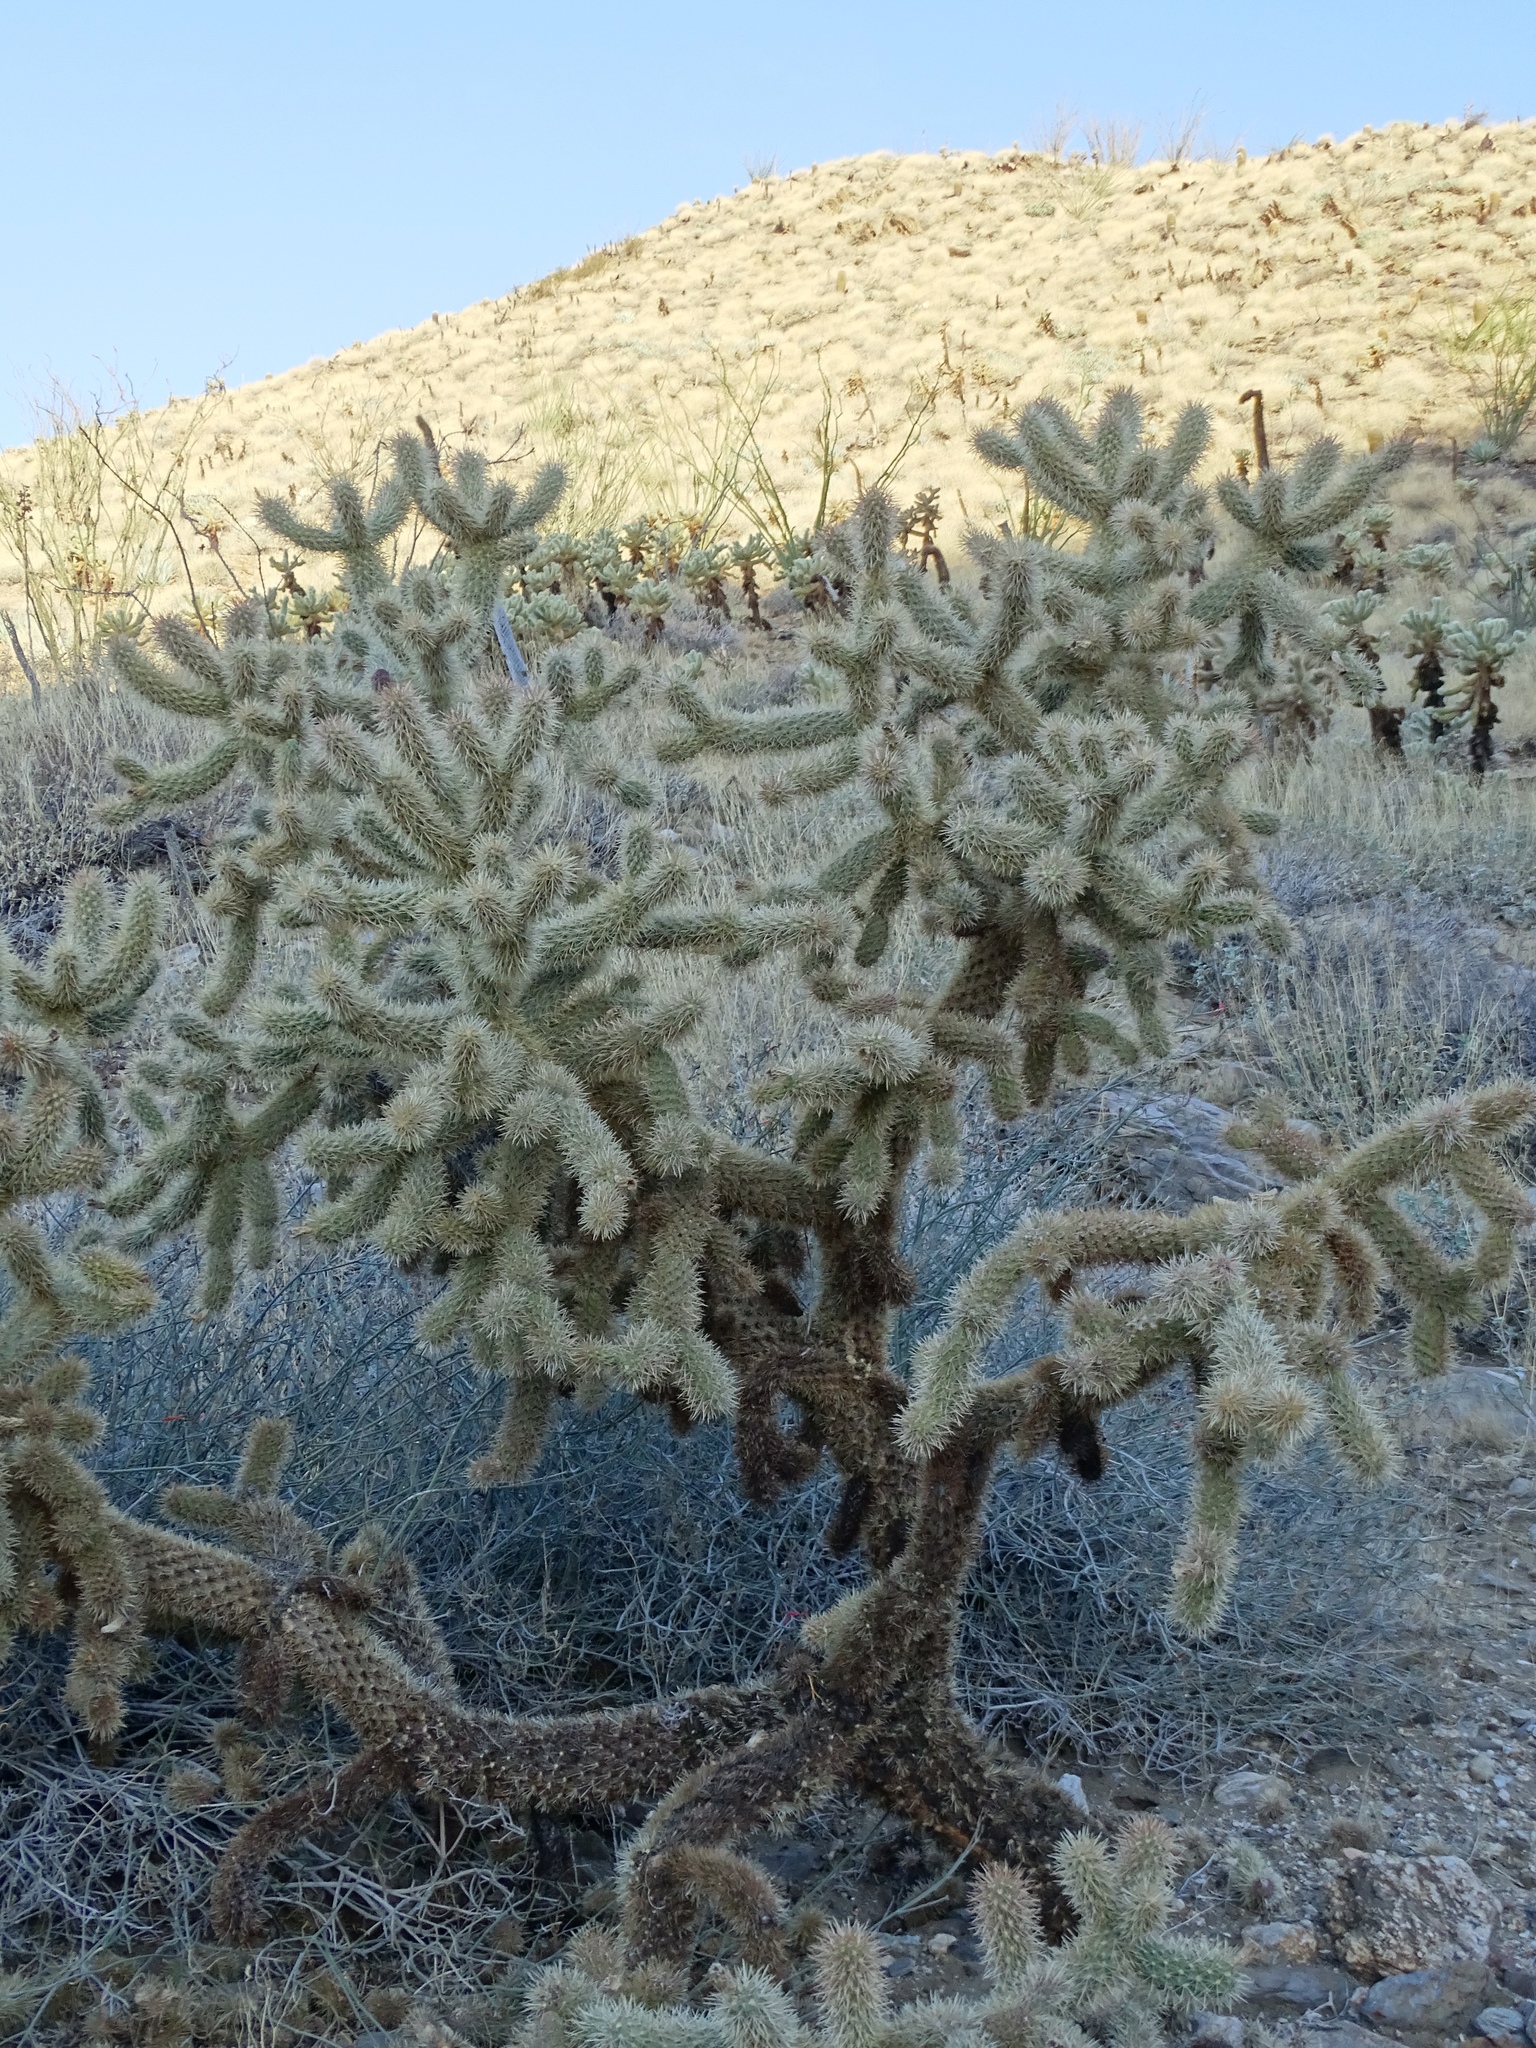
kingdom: Plantae
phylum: Tracheophyta
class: Magnoliopsida
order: Caryophyllales
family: Cactaceae
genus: Cylindropuntia
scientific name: Cylindropuntia fosbergii
